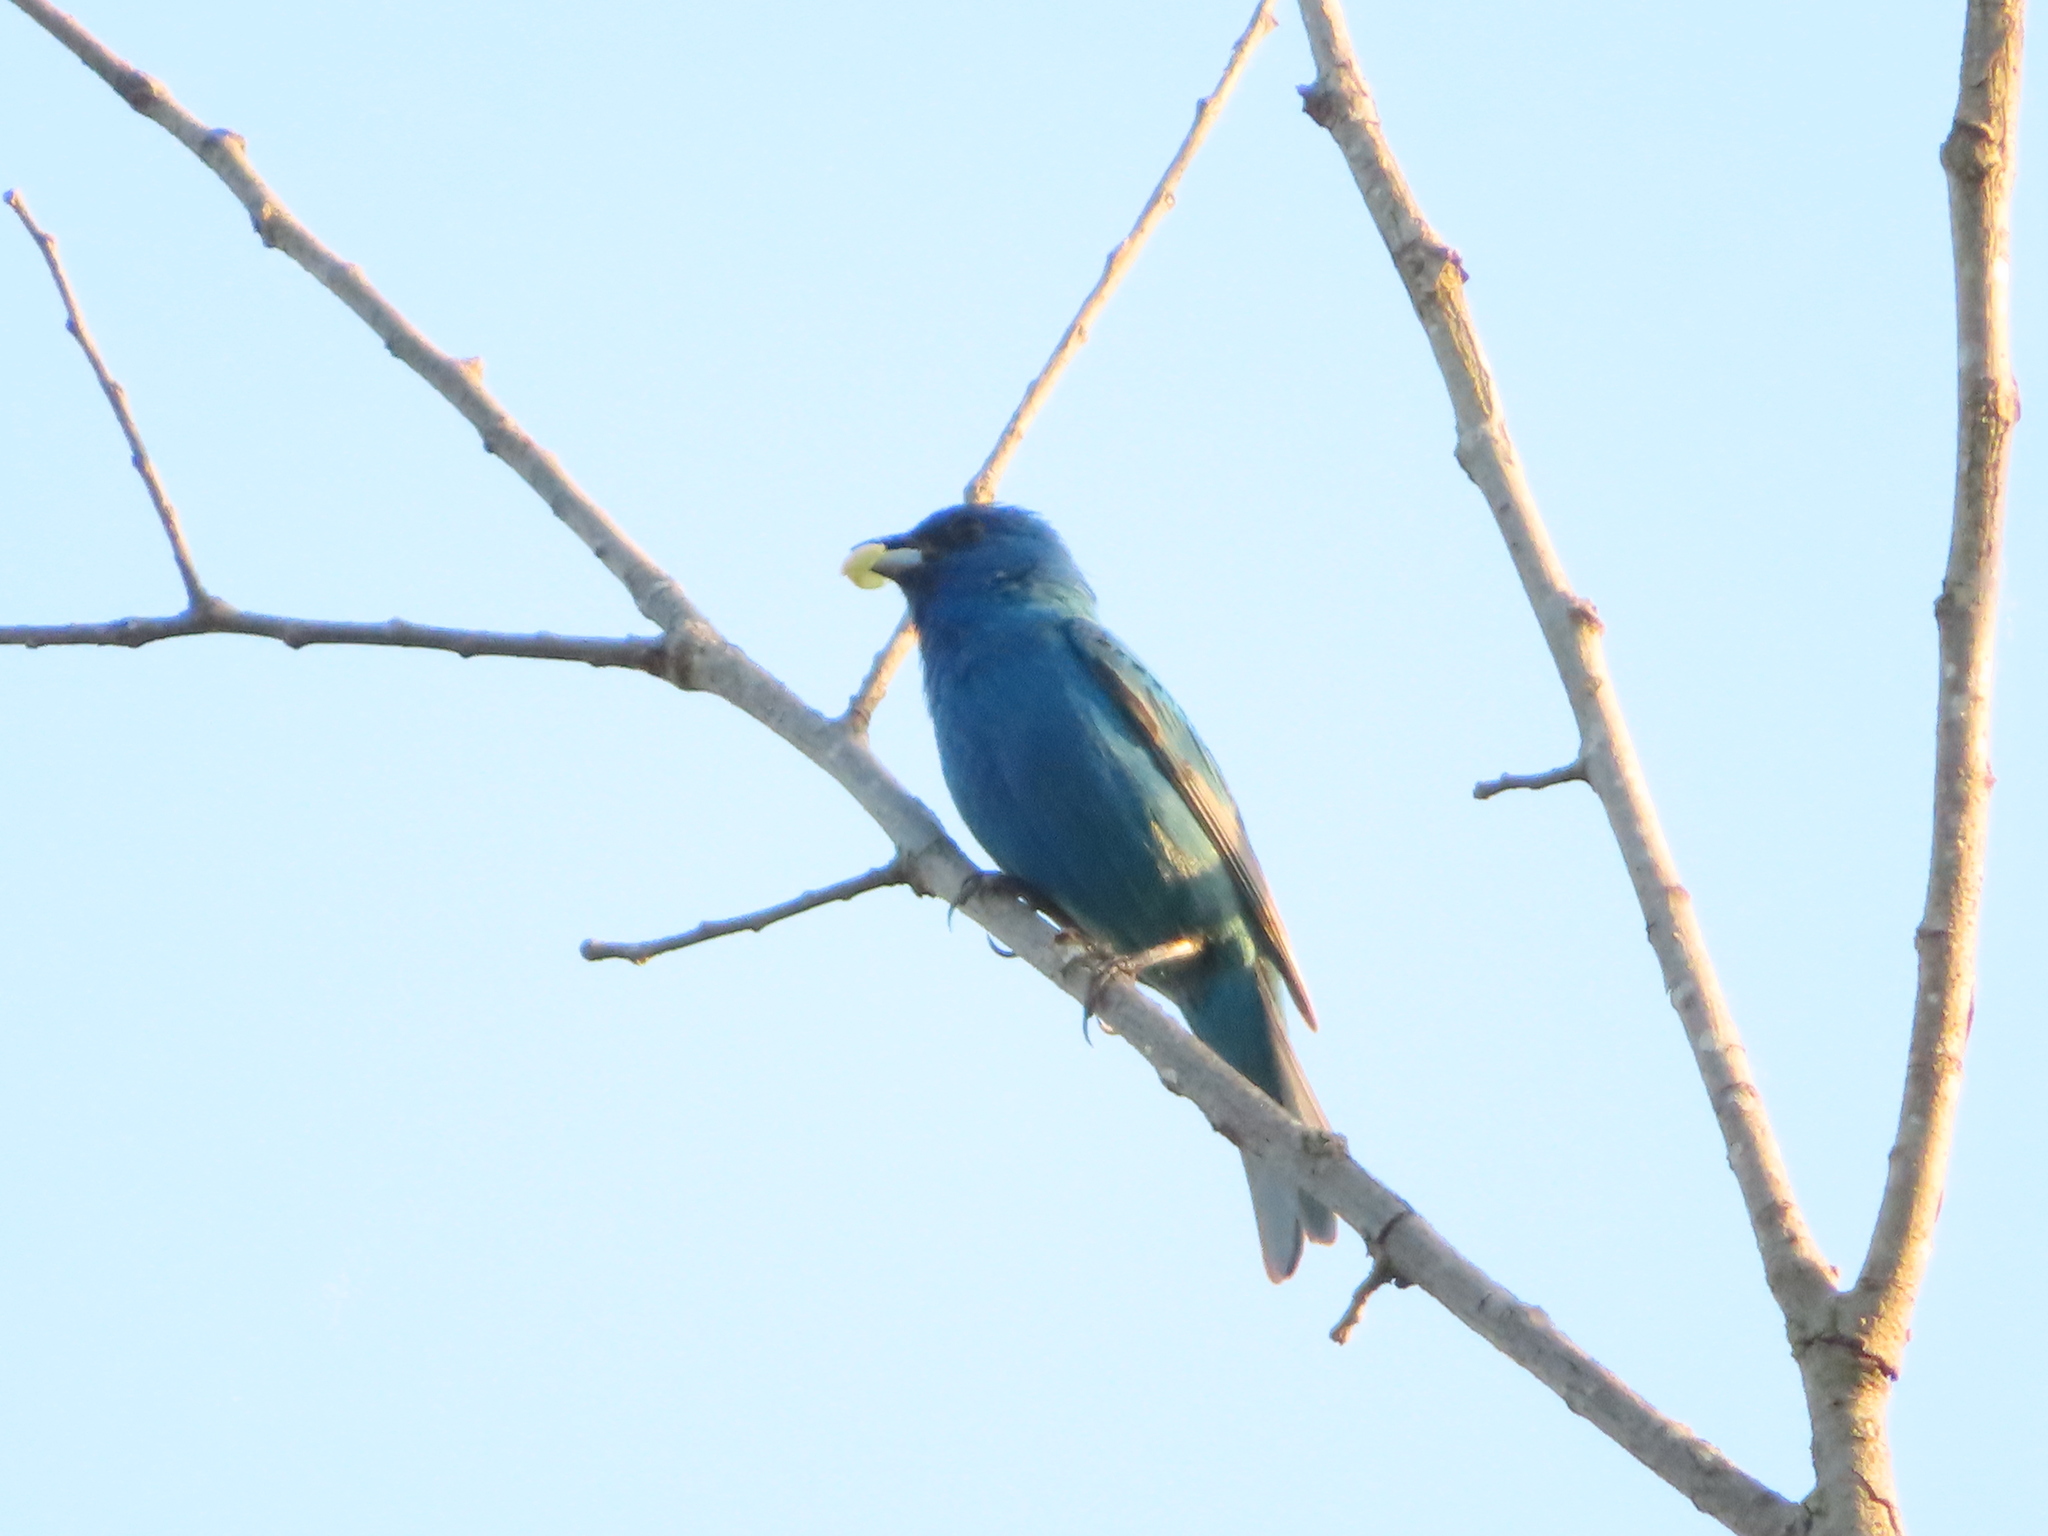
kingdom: Animalia
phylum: Chordata
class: Aves
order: Passeriformes
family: Cardinalidae
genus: Passerina
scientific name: Passerina cyanea
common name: Indigo bunting
